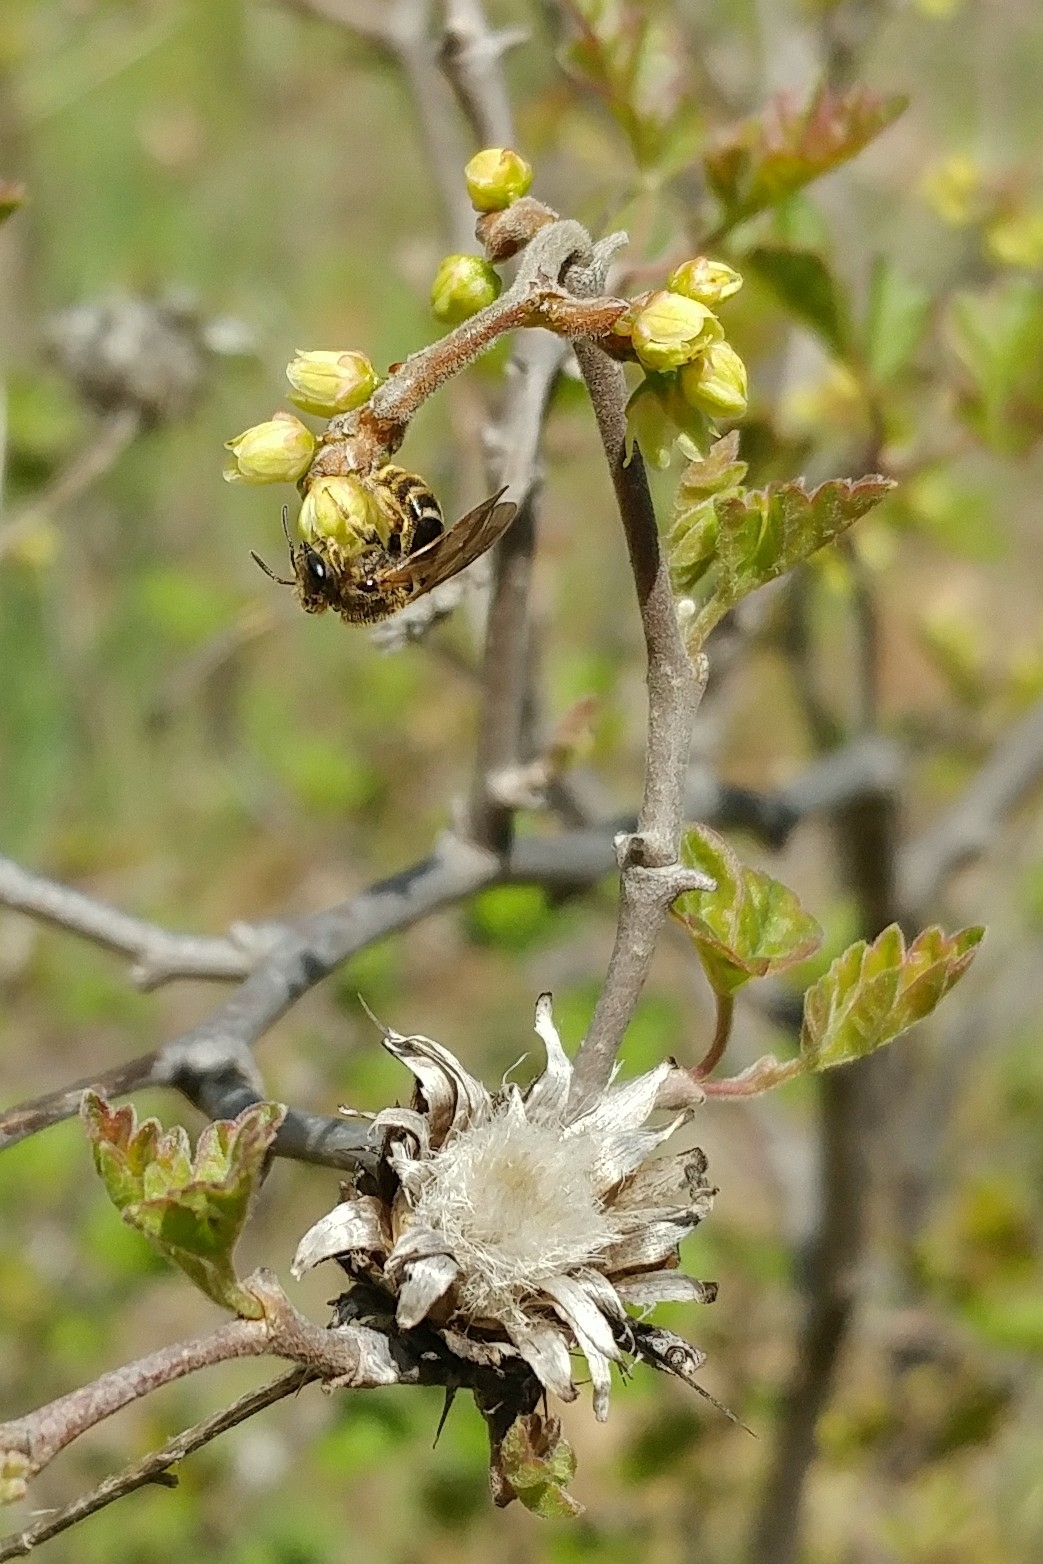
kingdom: Animalia
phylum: Arthropoda
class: Insecta
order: Hymenoptera
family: Halictidae
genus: Lasioglossum
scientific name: Lasioglossum
